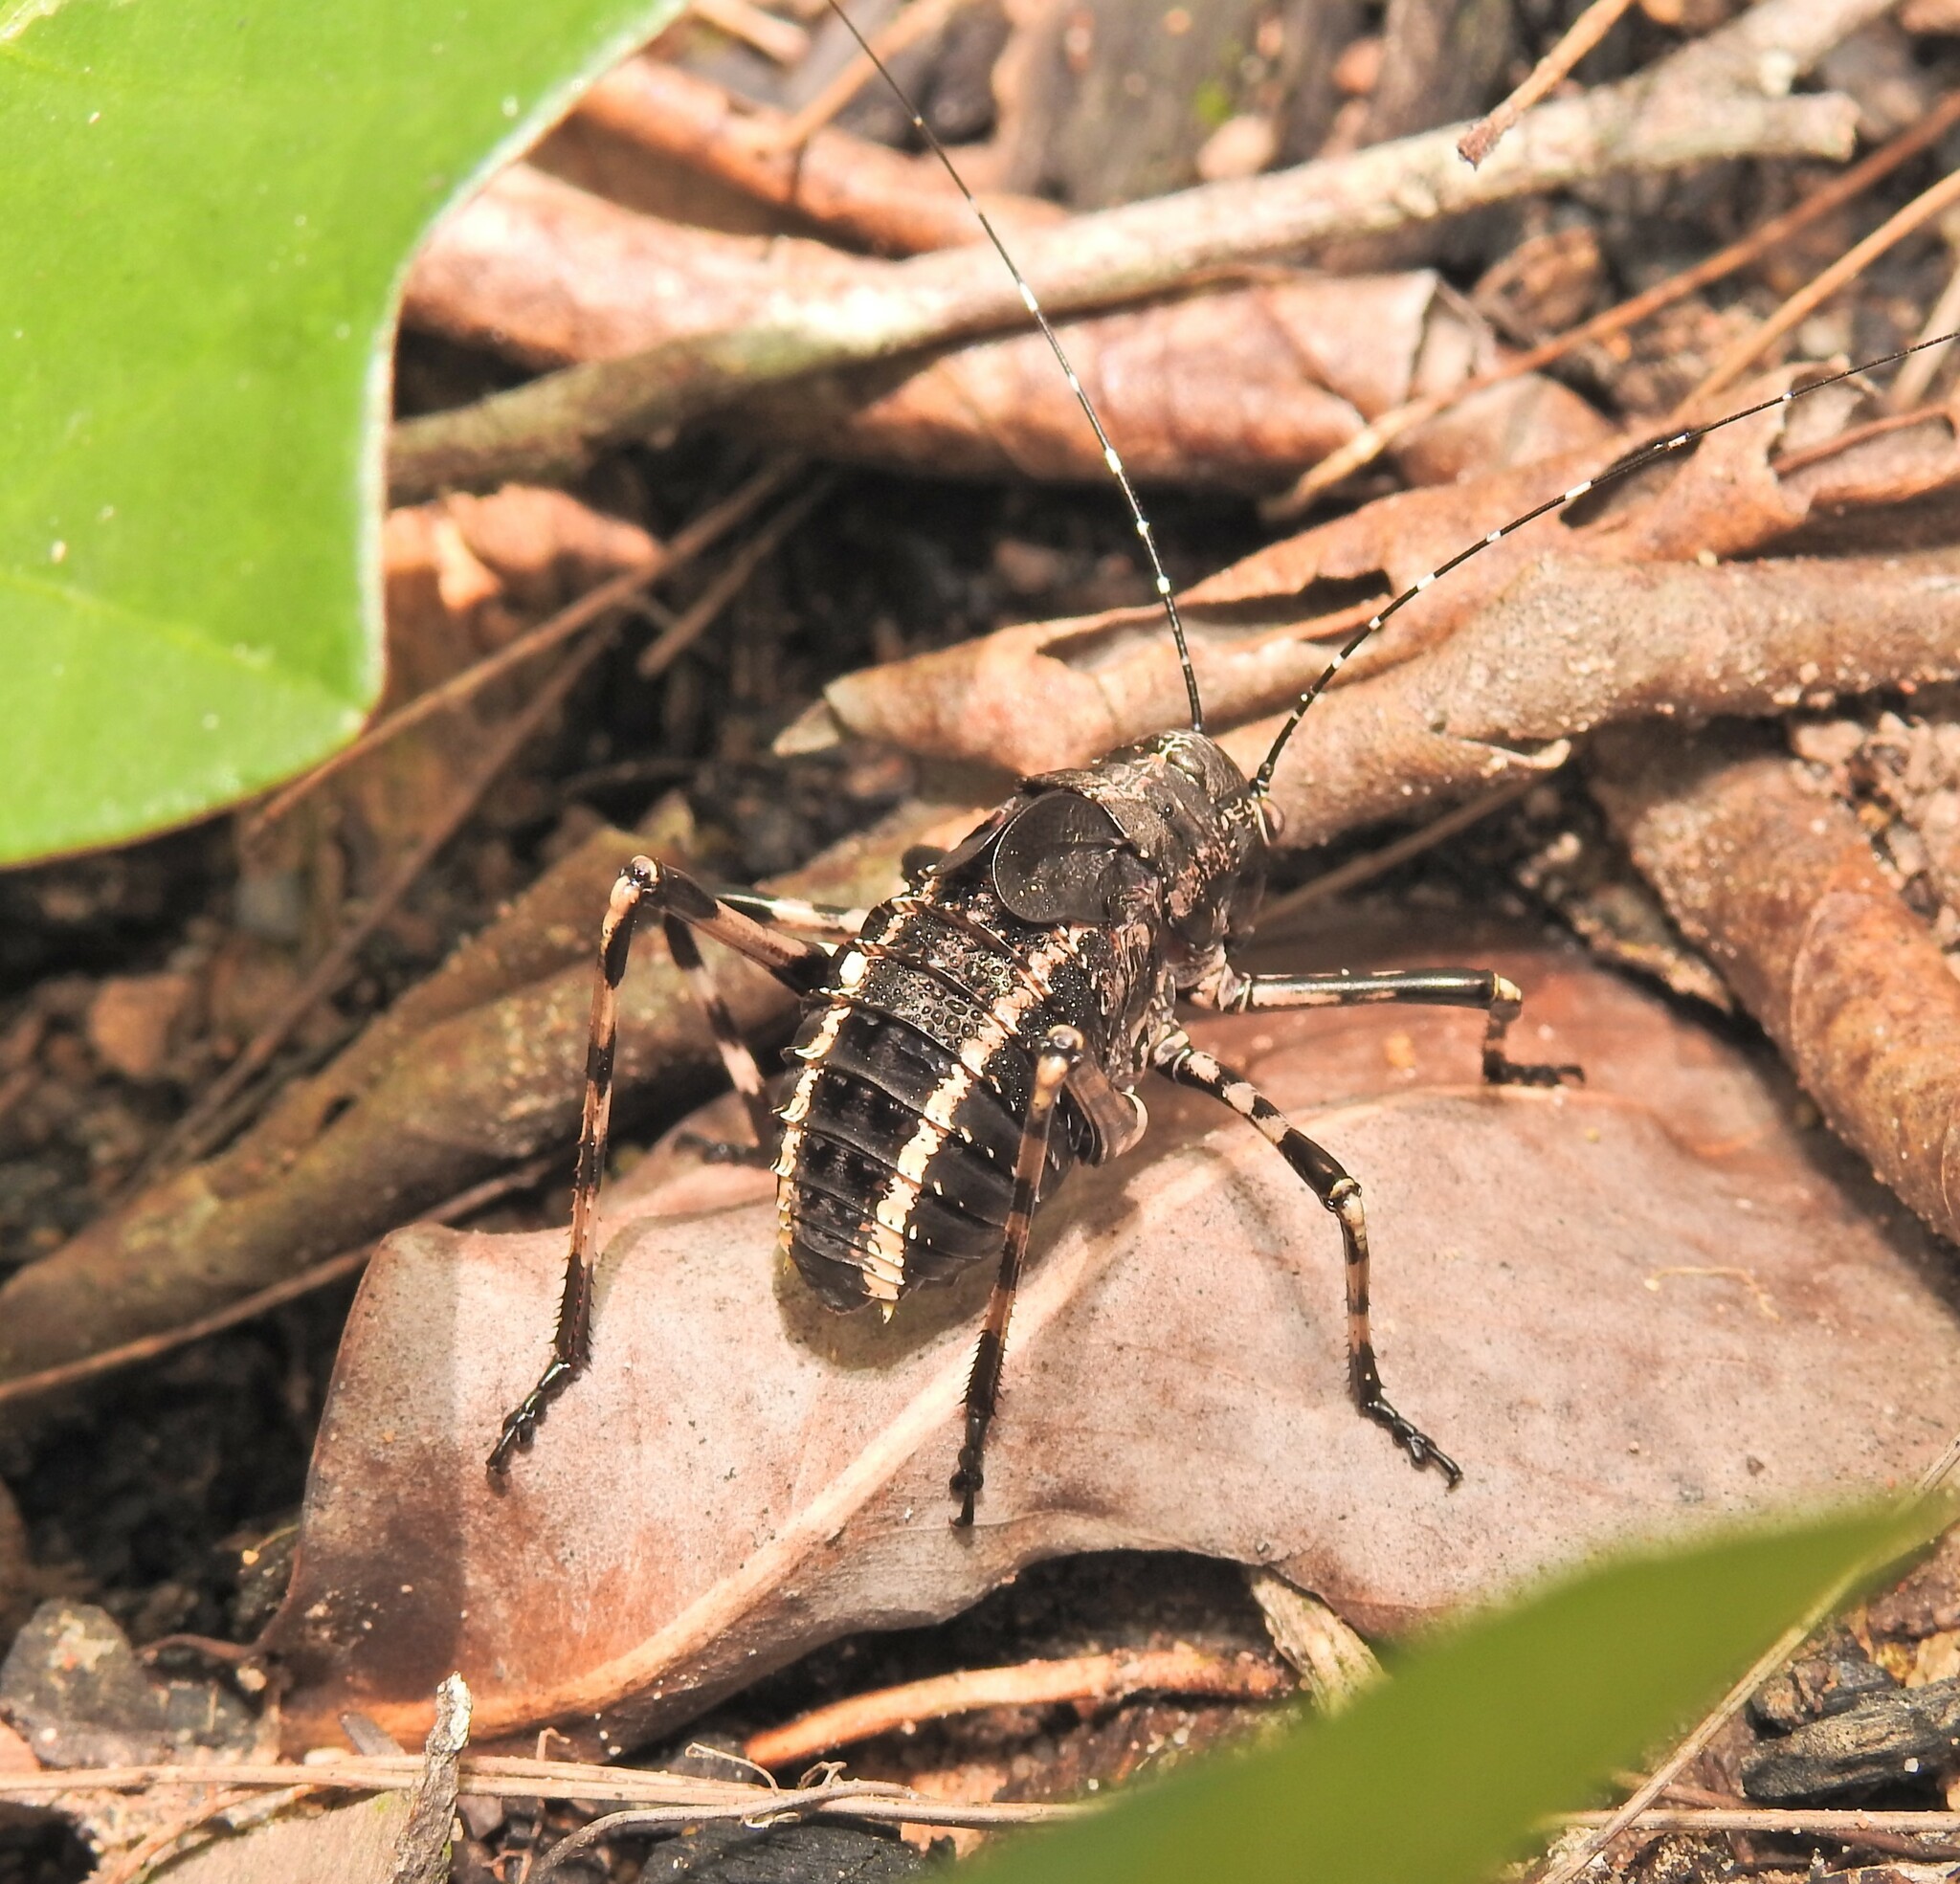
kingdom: Animalia
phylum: Arthropoda
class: Insecta
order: Orthoptera
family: Tettigoniidae
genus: Acripeza
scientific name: Acripeza reticulata
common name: Mountain katydid
